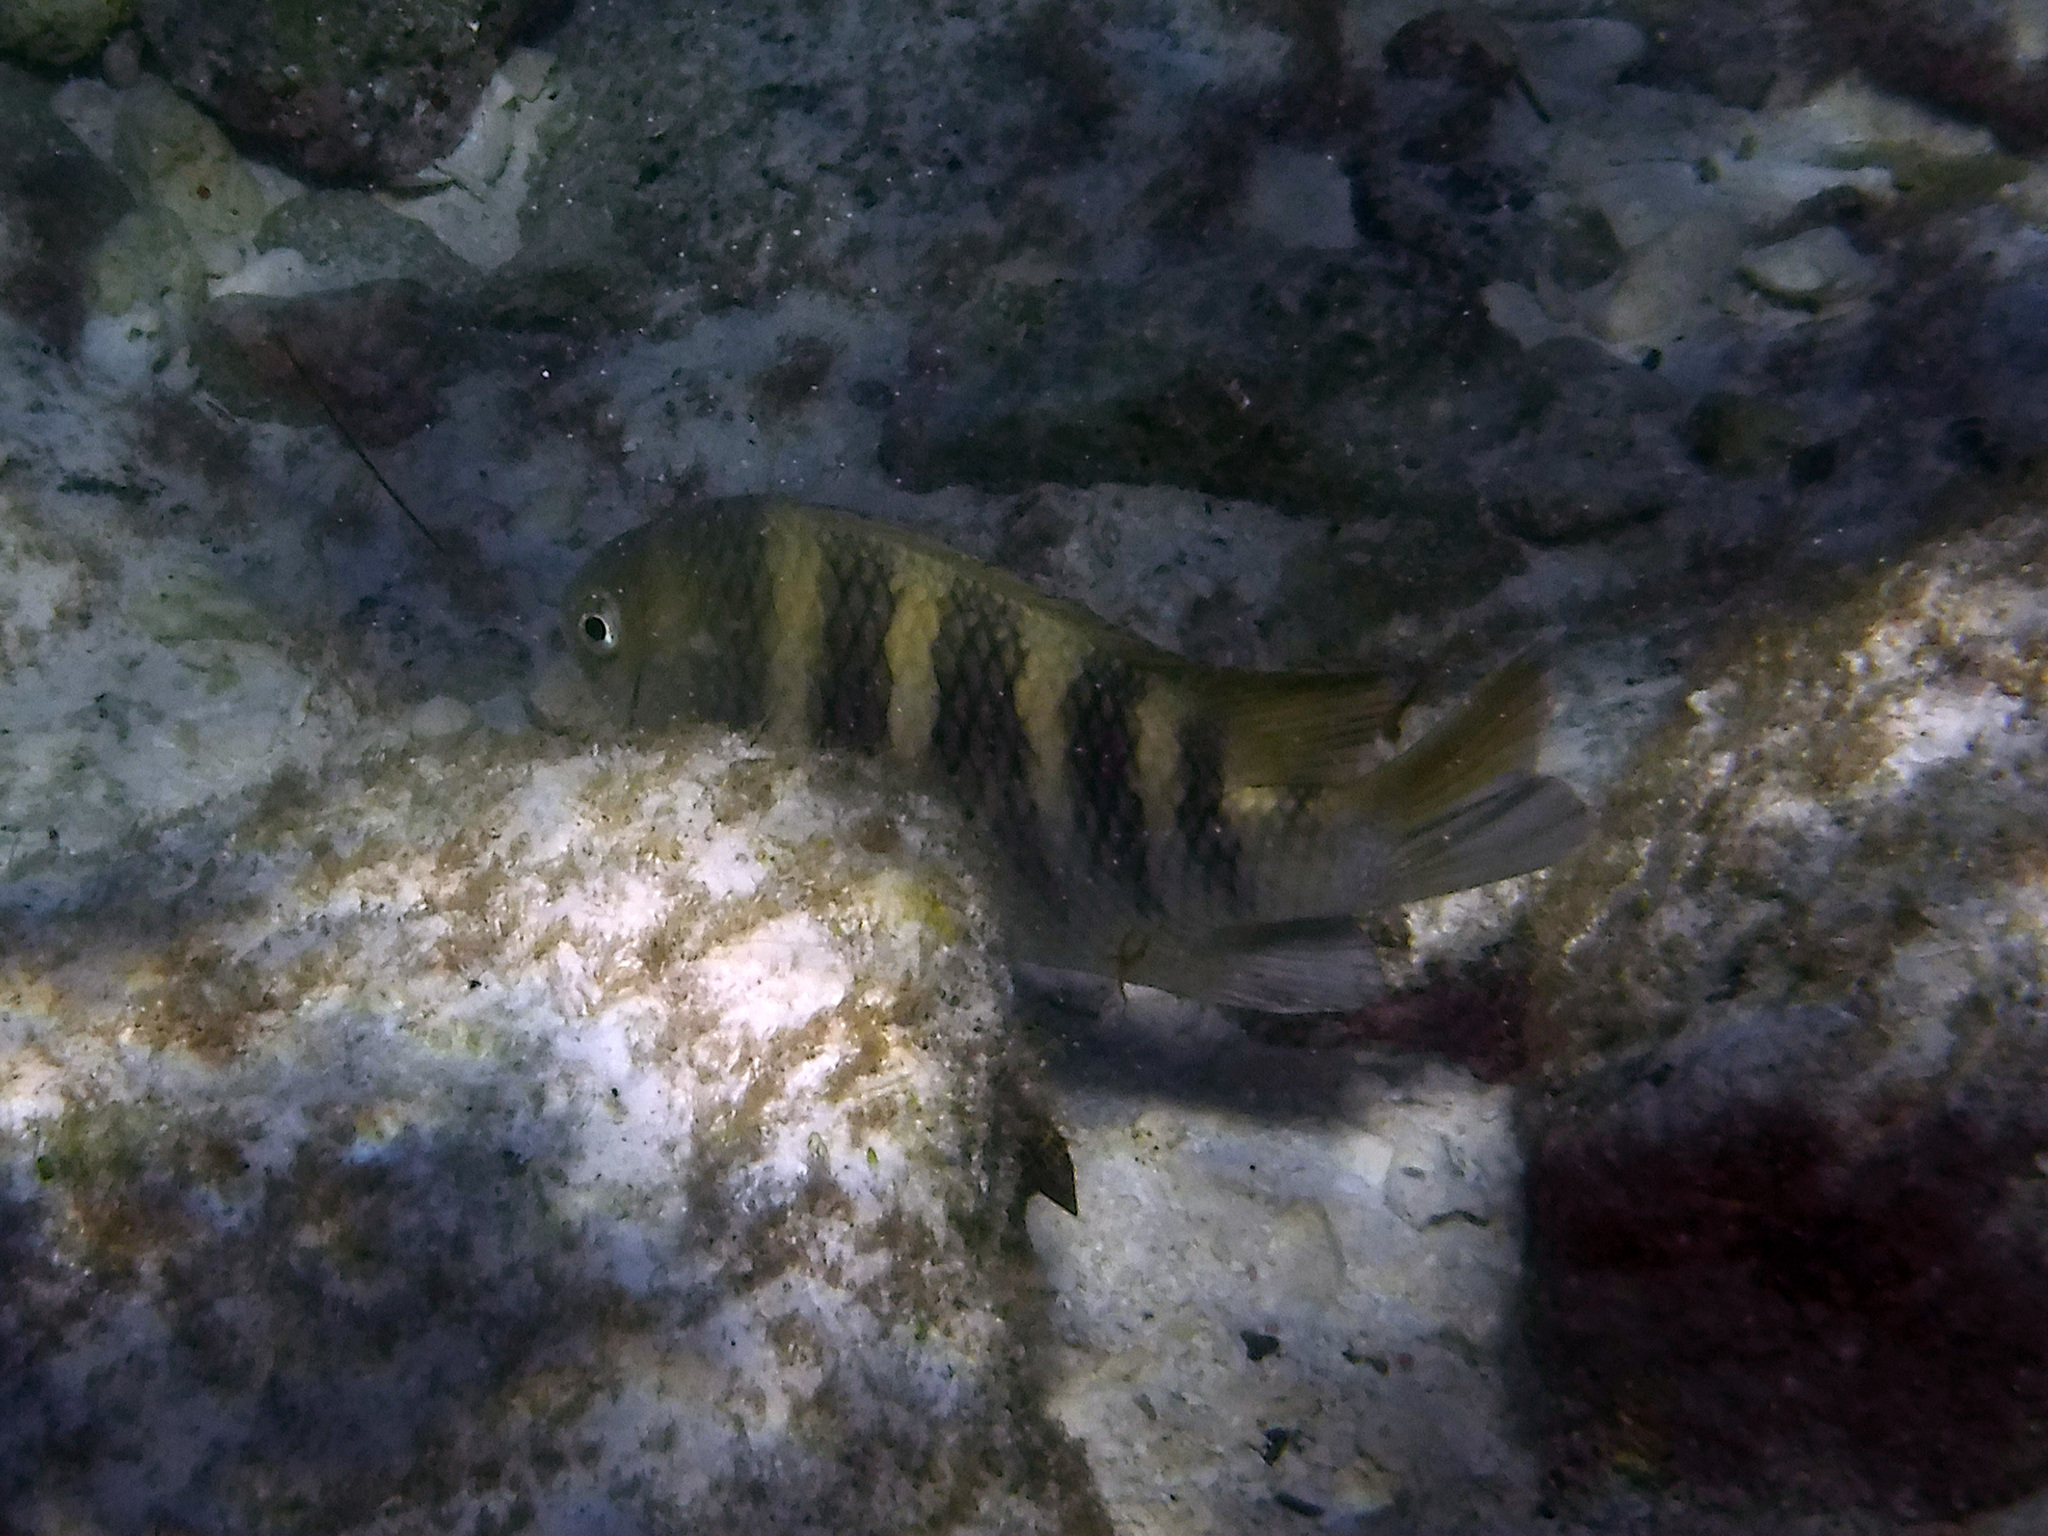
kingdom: Animalia
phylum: Chordata
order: Perciformes
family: Pomacentridae
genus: Abudefduf
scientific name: Abudefduf taurus
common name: Night sergeant
